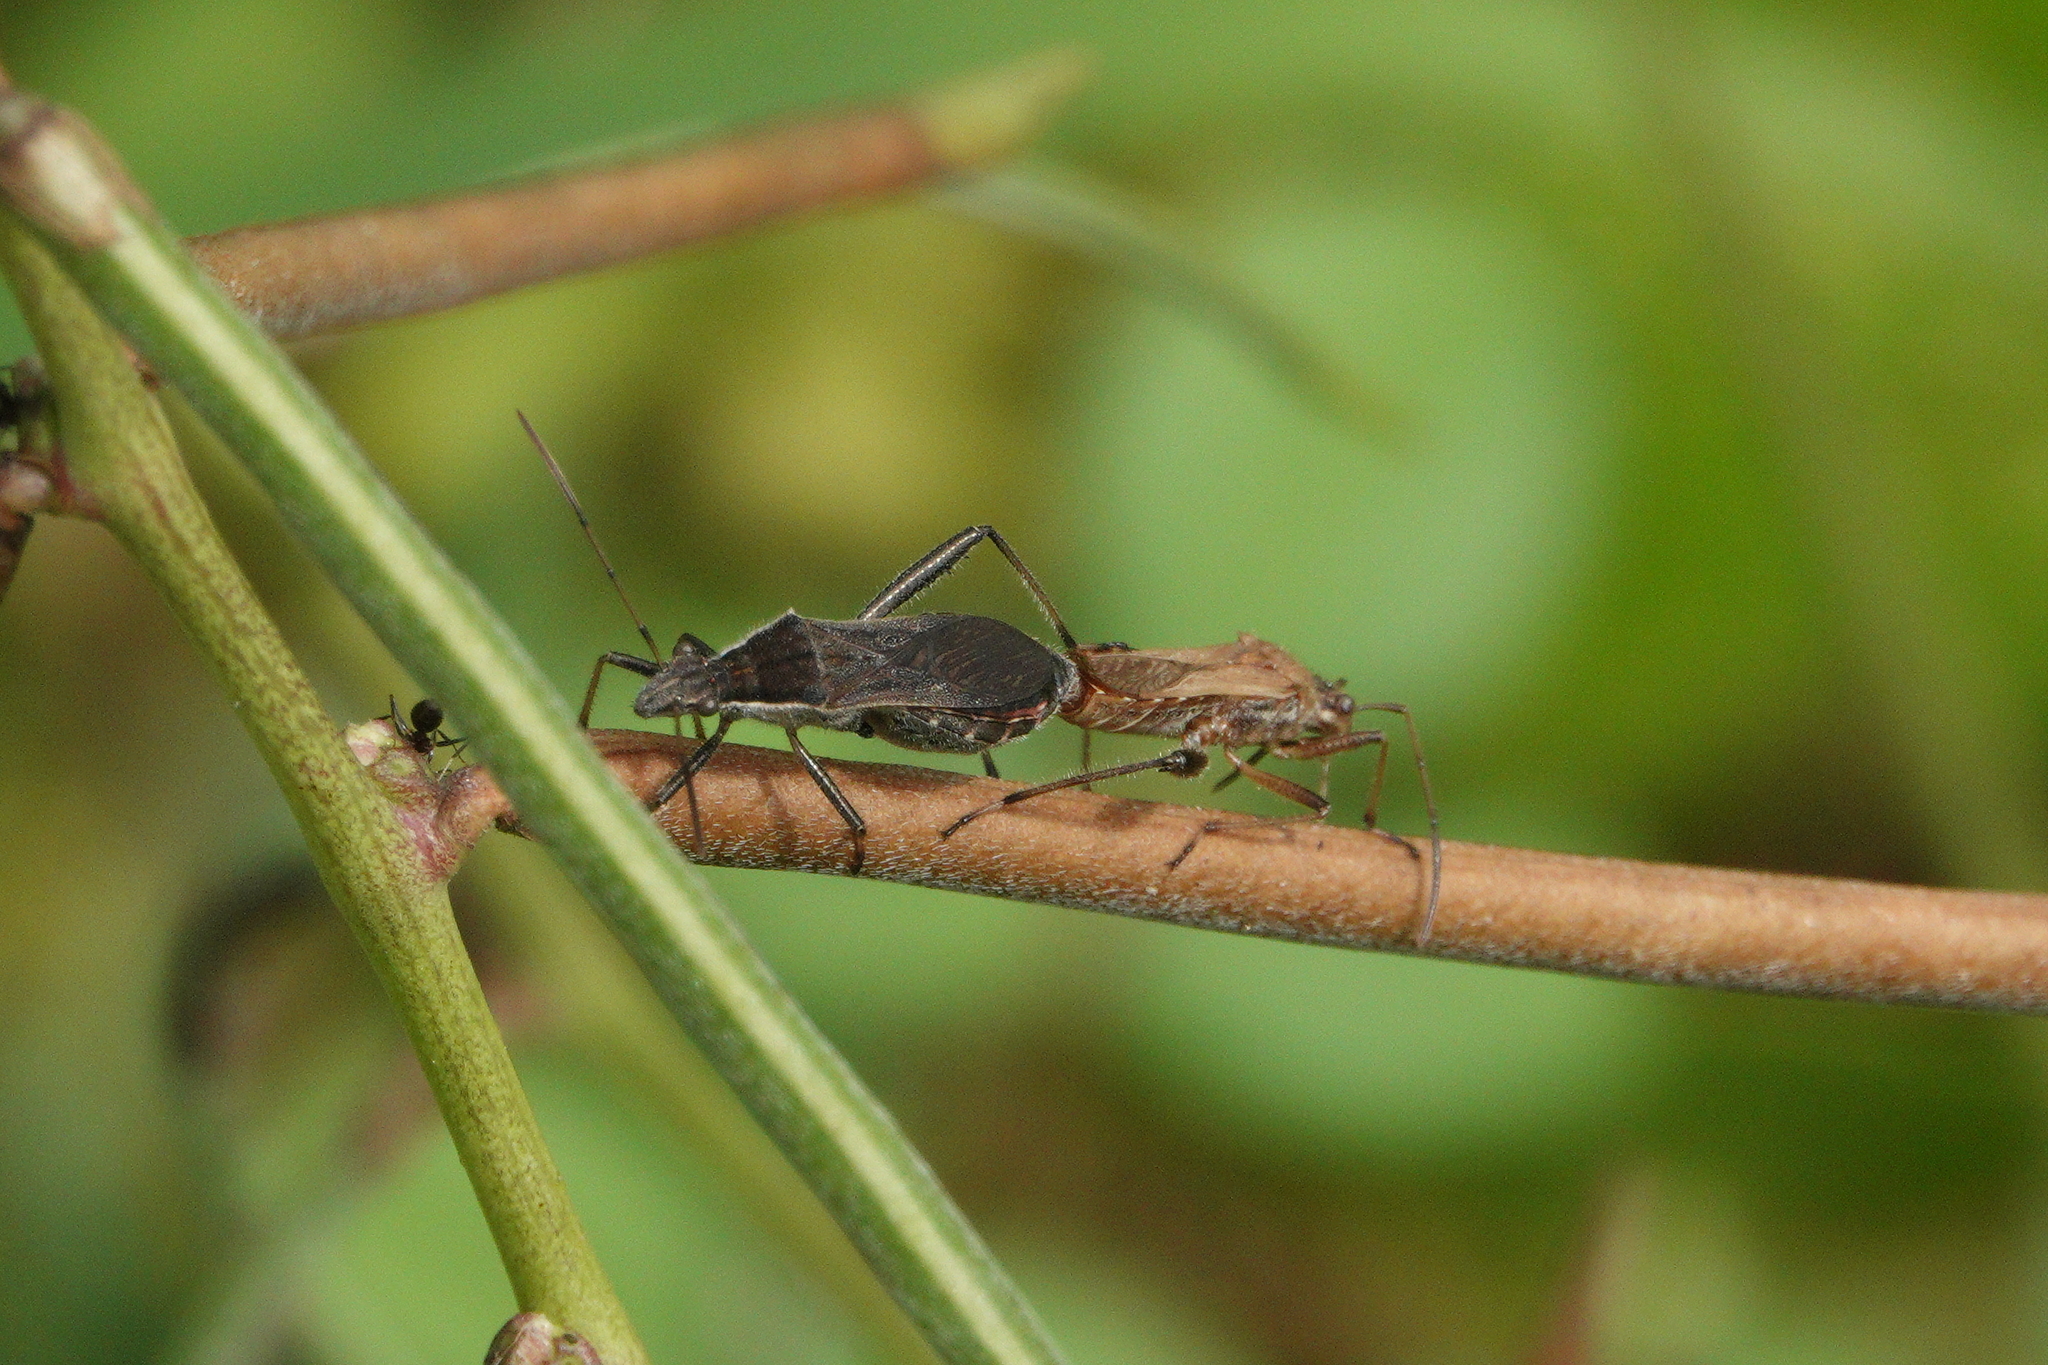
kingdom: Animalia
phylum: Arthropoda
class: Insecta
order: Hemiptera
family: Alydidae
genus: Alydus
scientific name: Alydus pilosulus
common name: Broad-headed bug
